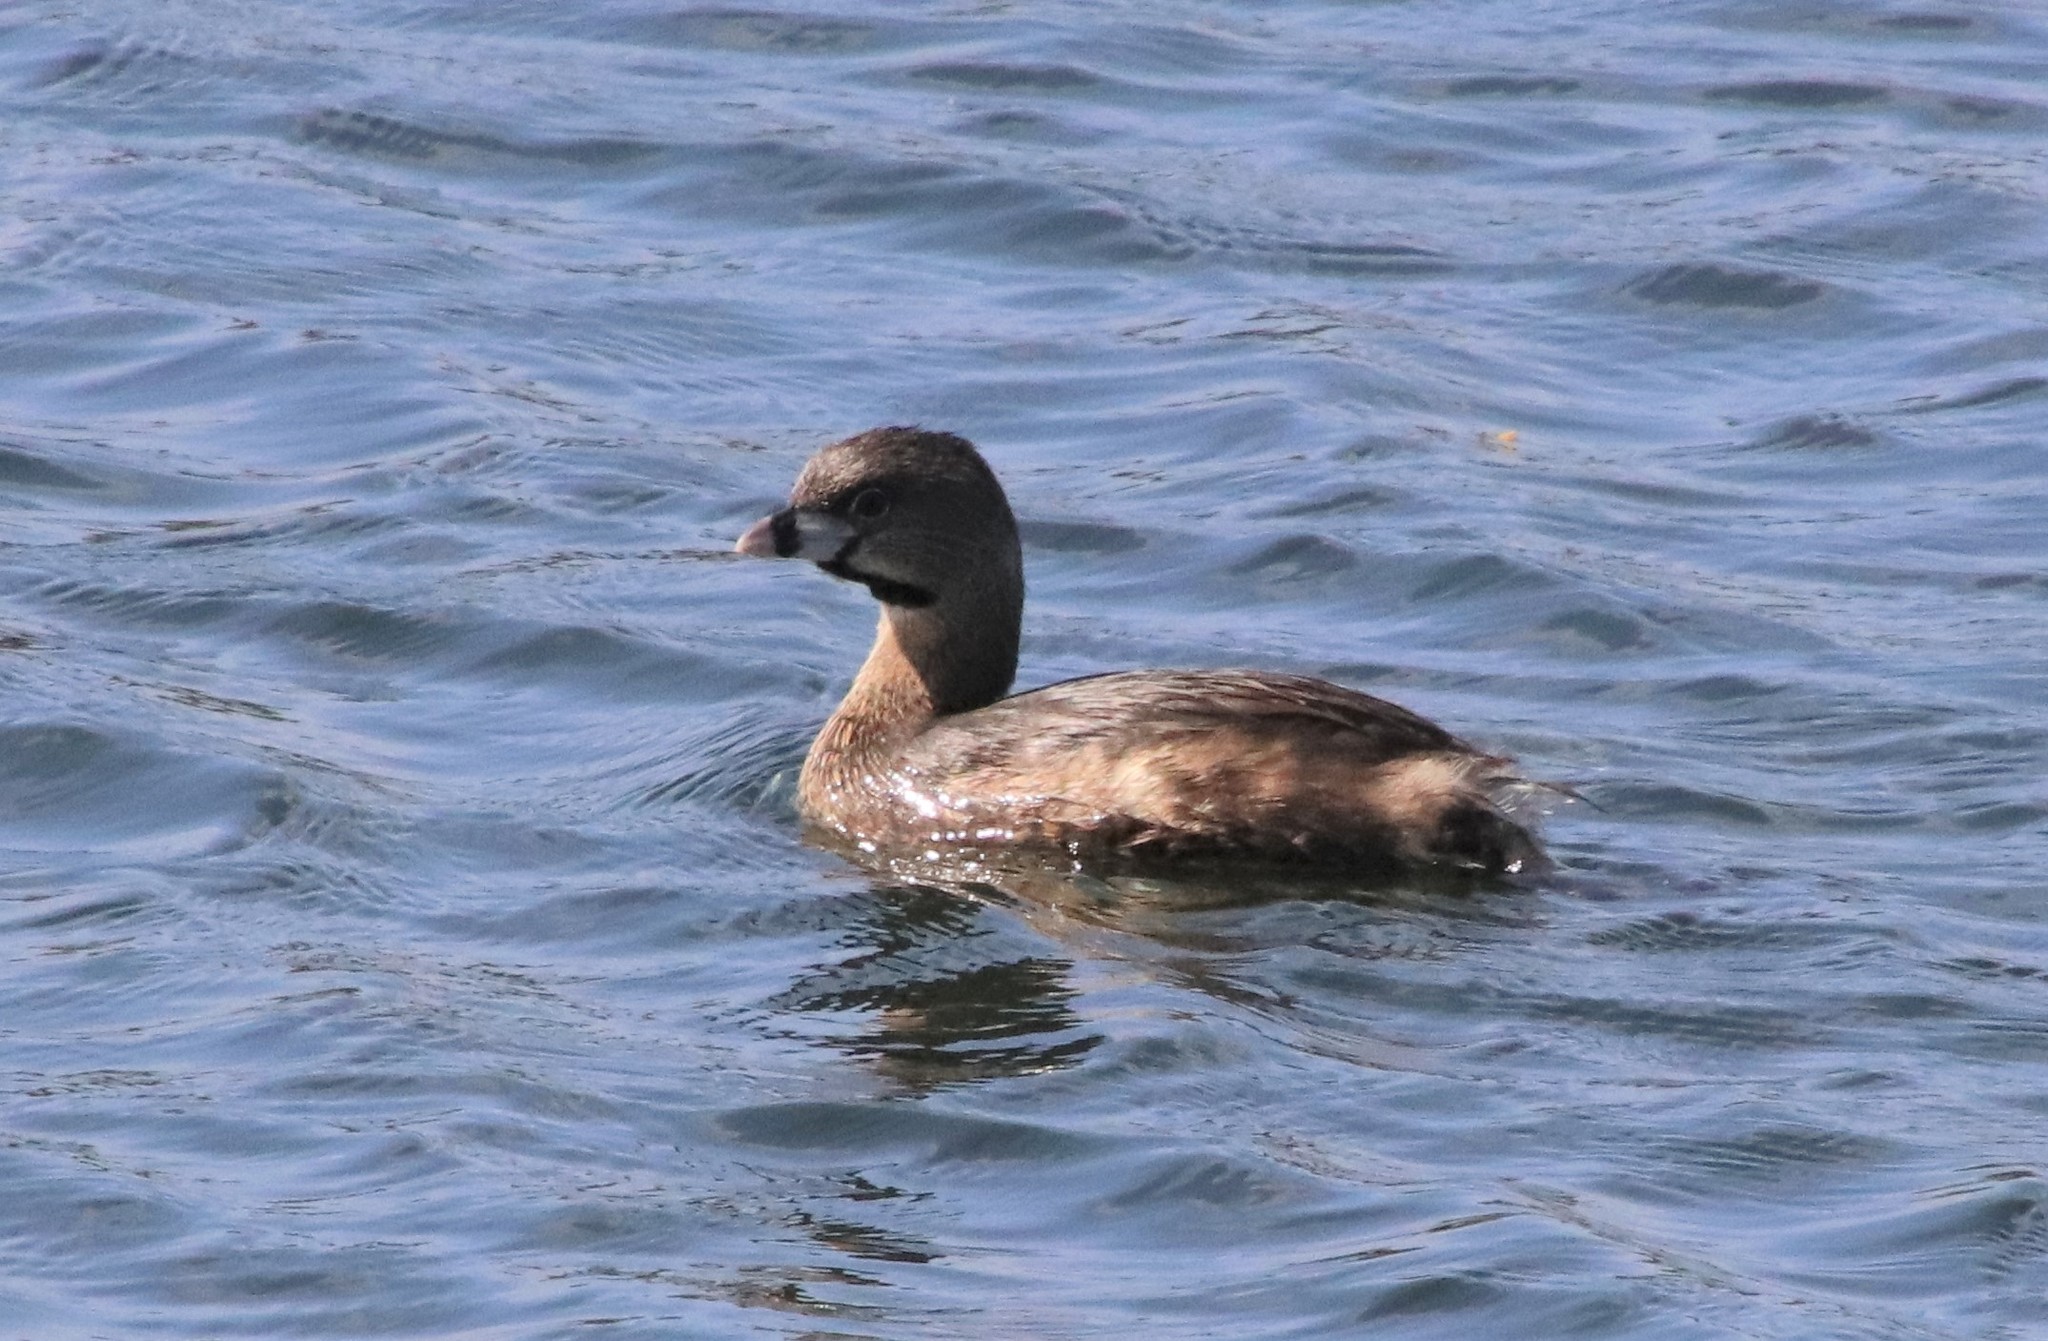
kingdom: Animalia
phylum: Chordata
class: Aves
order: Podicipediformes
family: Podicipedidae
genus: Podilymbus
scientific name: Podilymbus podiceps
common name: Pied-billed grebe
